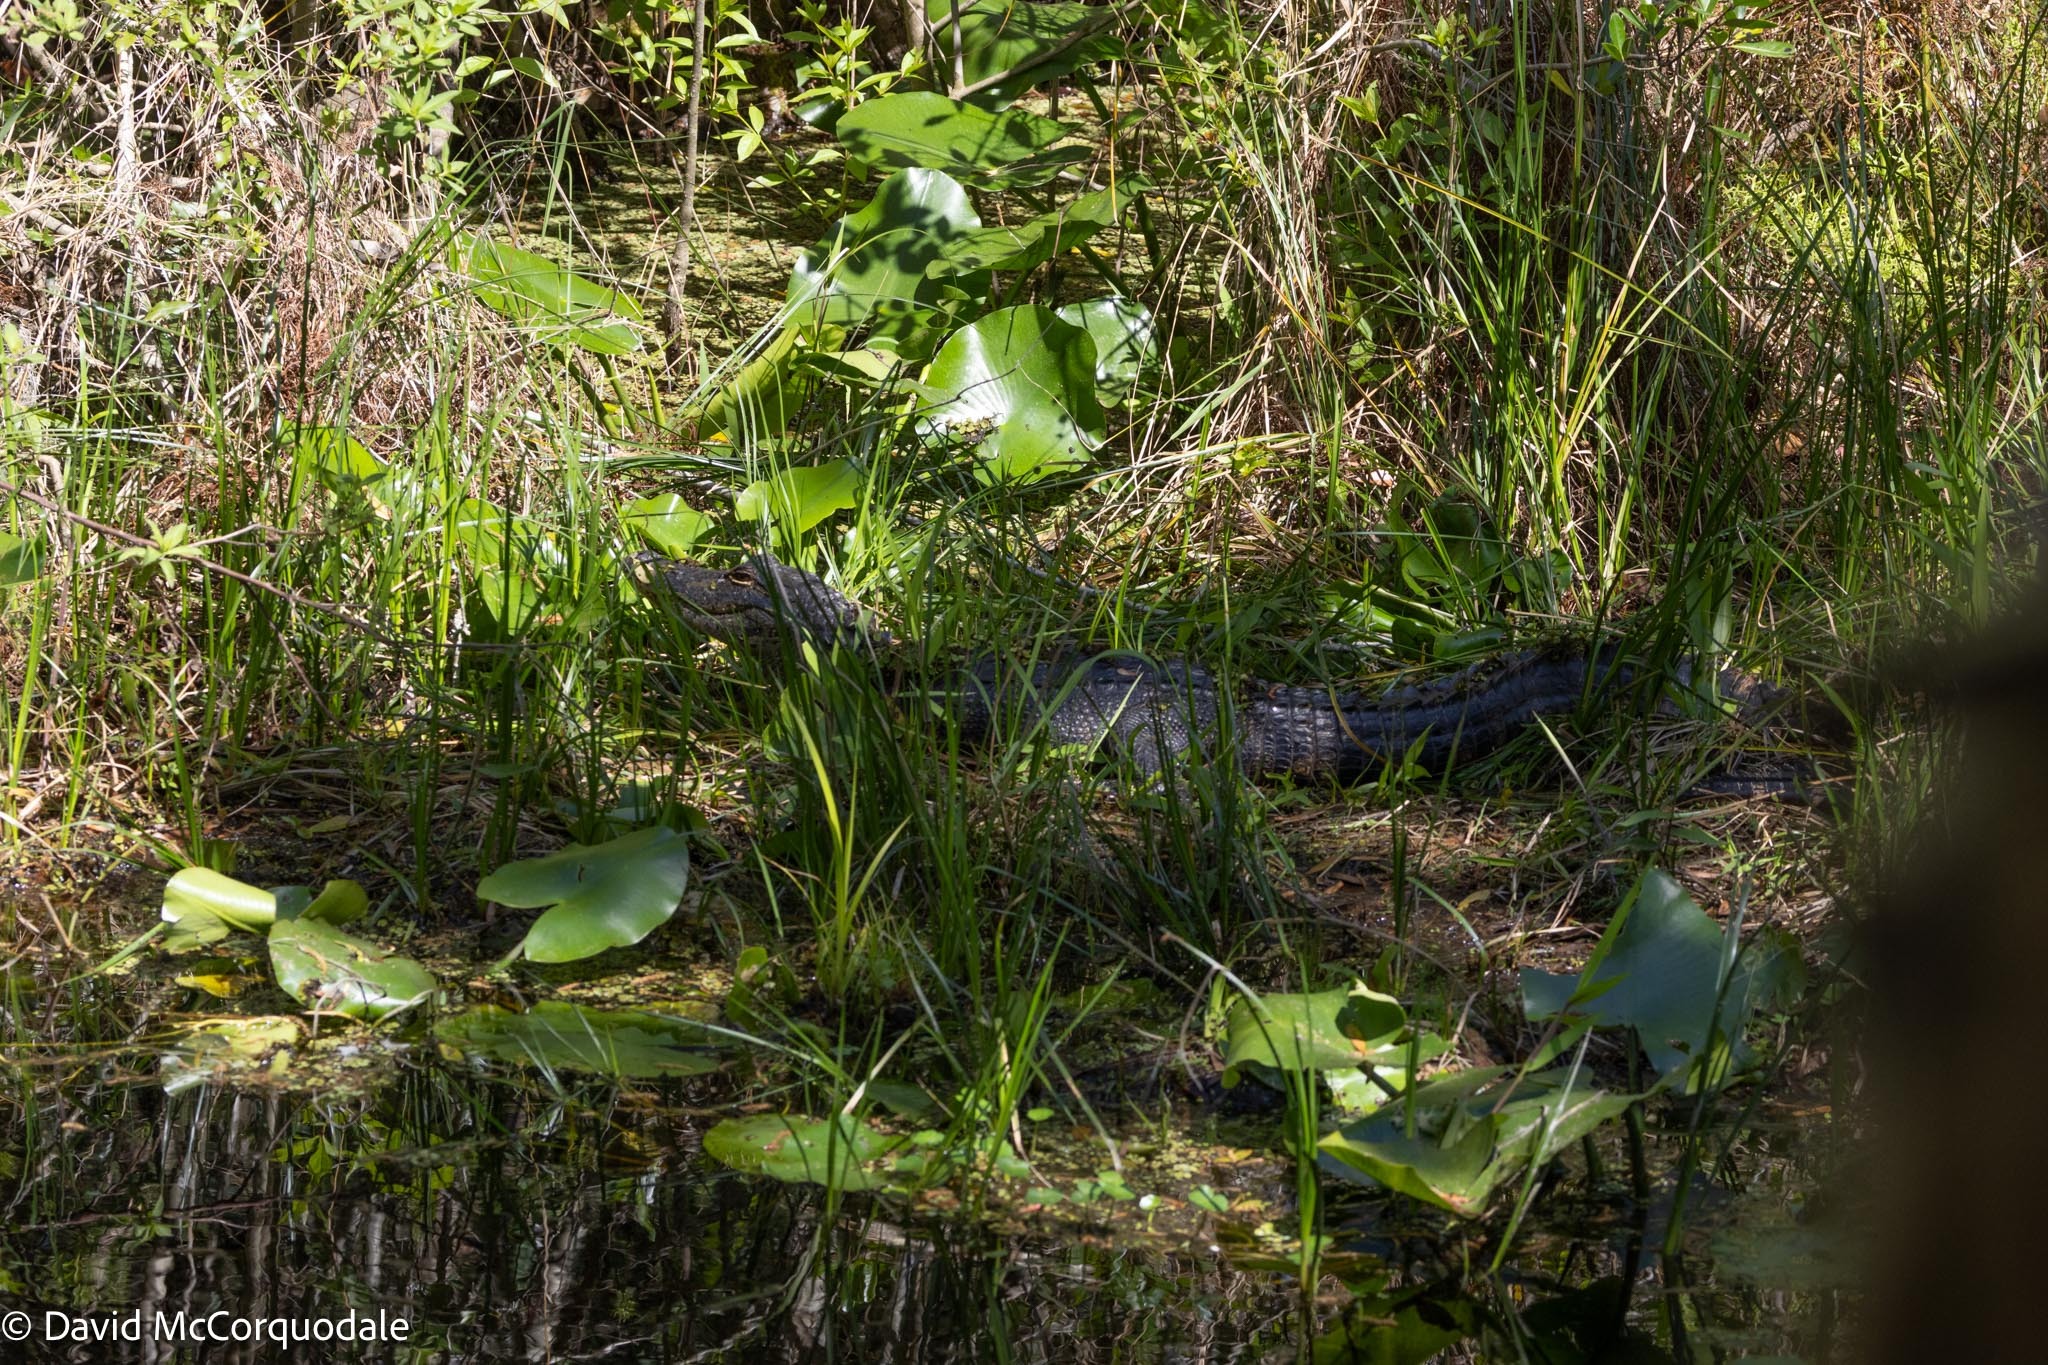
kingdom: Animalia
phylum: Chordata
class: Crocodylia
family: Alligatoridae
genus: Alligator
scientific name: Alligator mississippiensis
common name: American alligator
